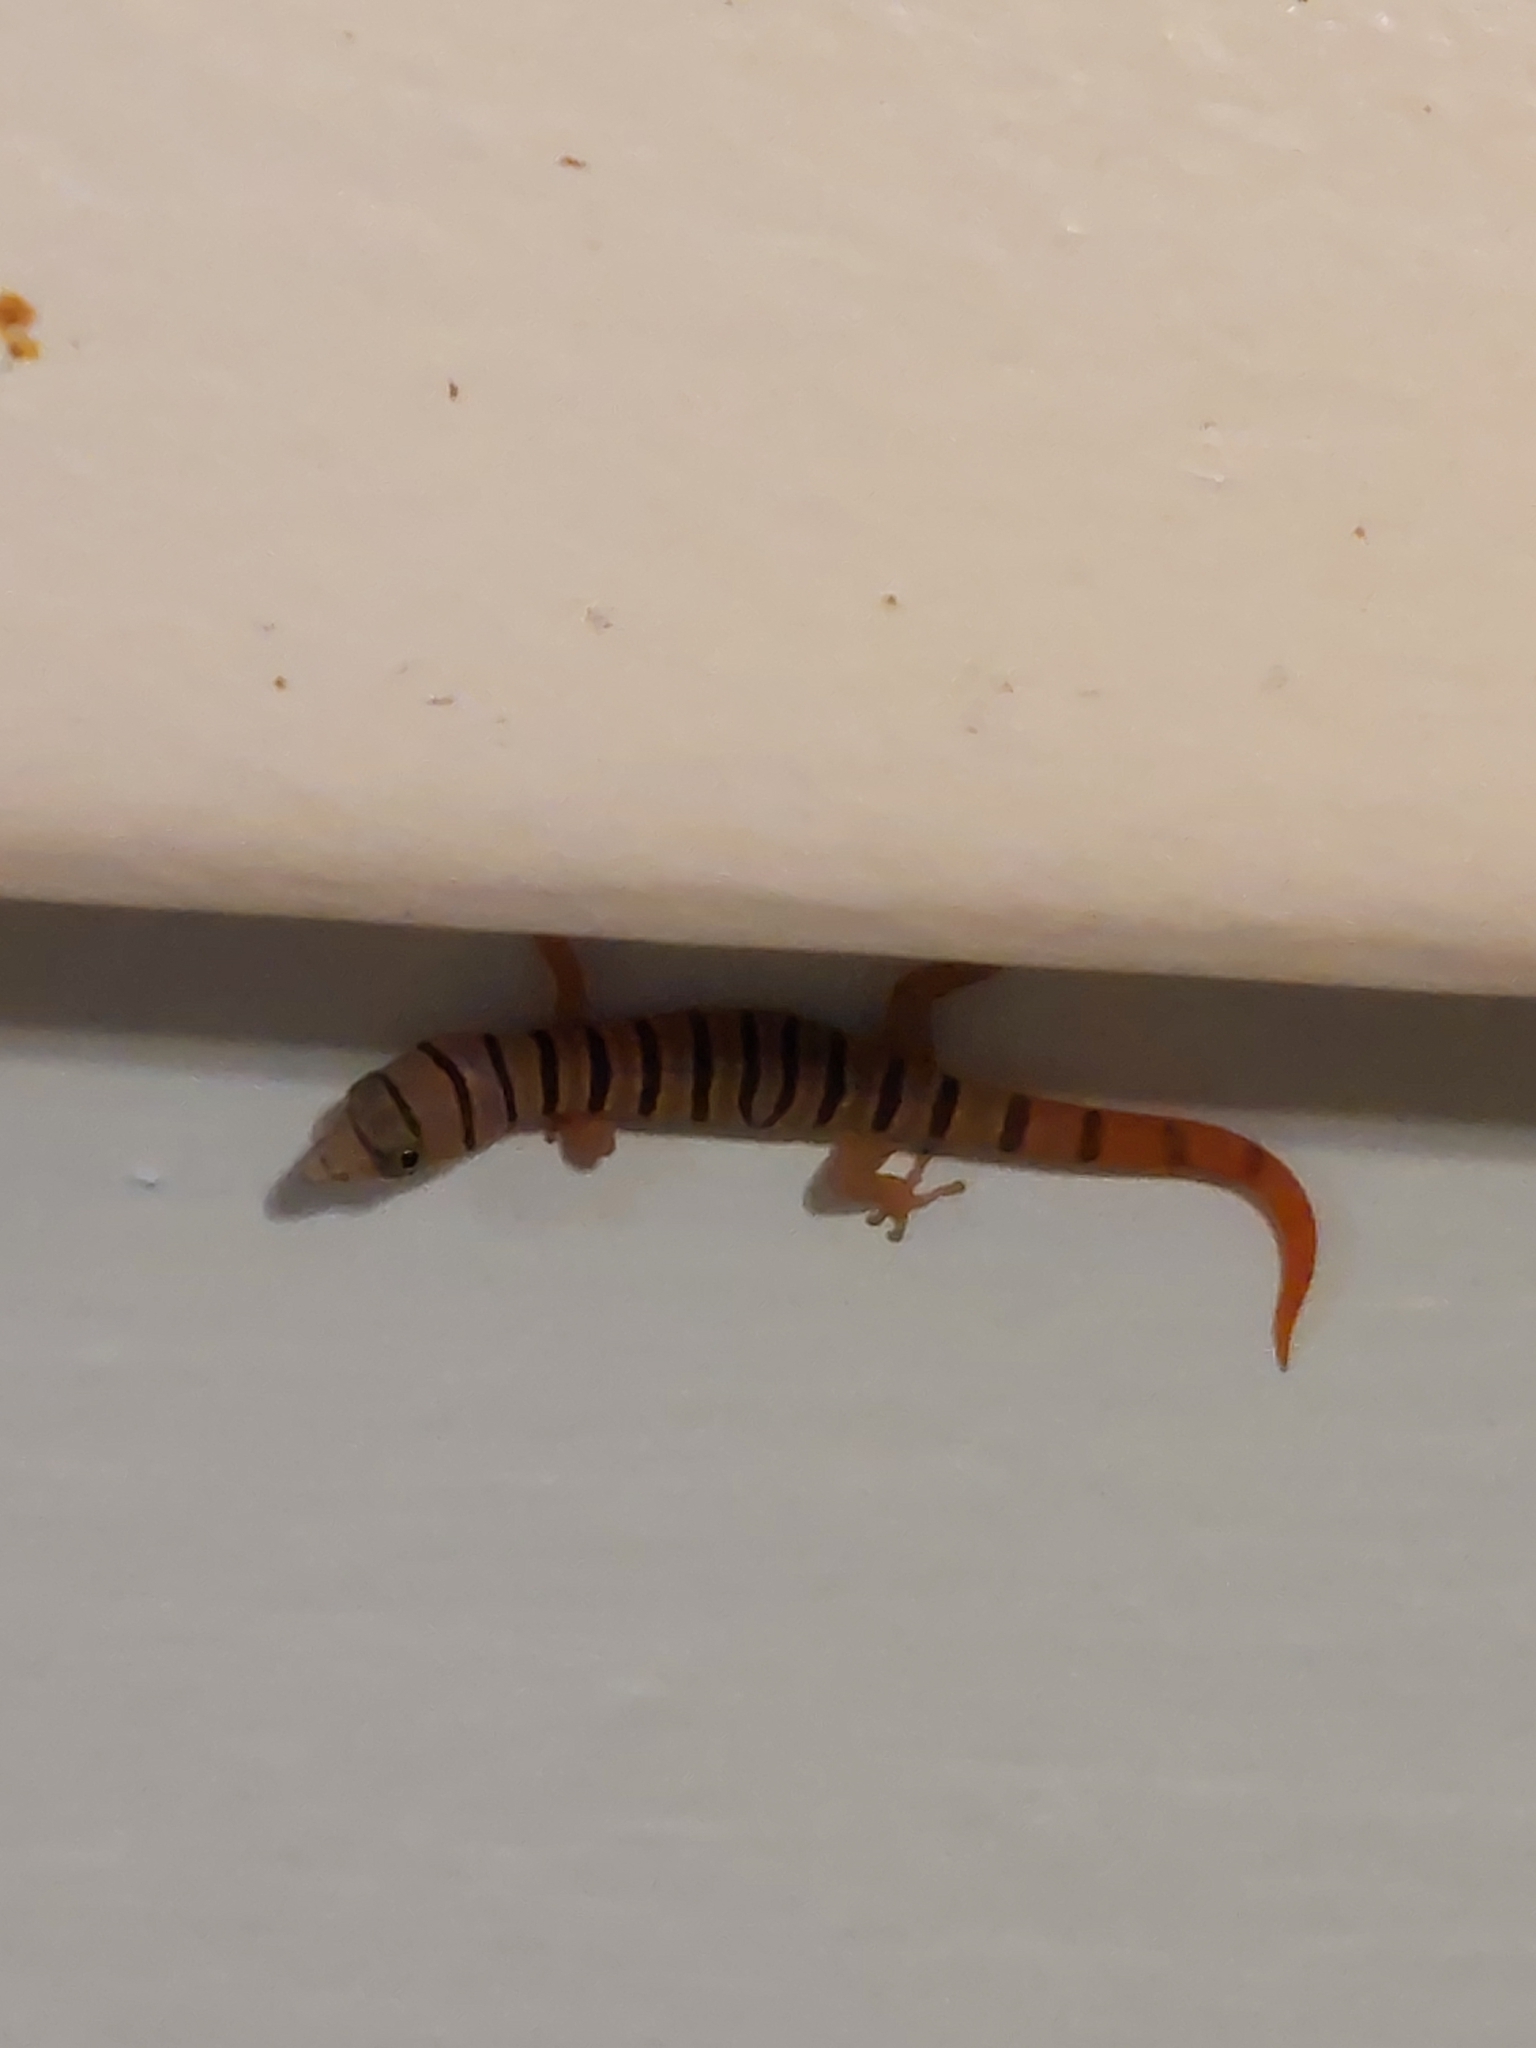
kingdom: Animalia
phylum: Chordata
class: Squamata
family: Sphaerodactylidae
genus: Sphaerodactylus
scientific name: Sphaerodactylus elegans
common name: Ashy gecko
